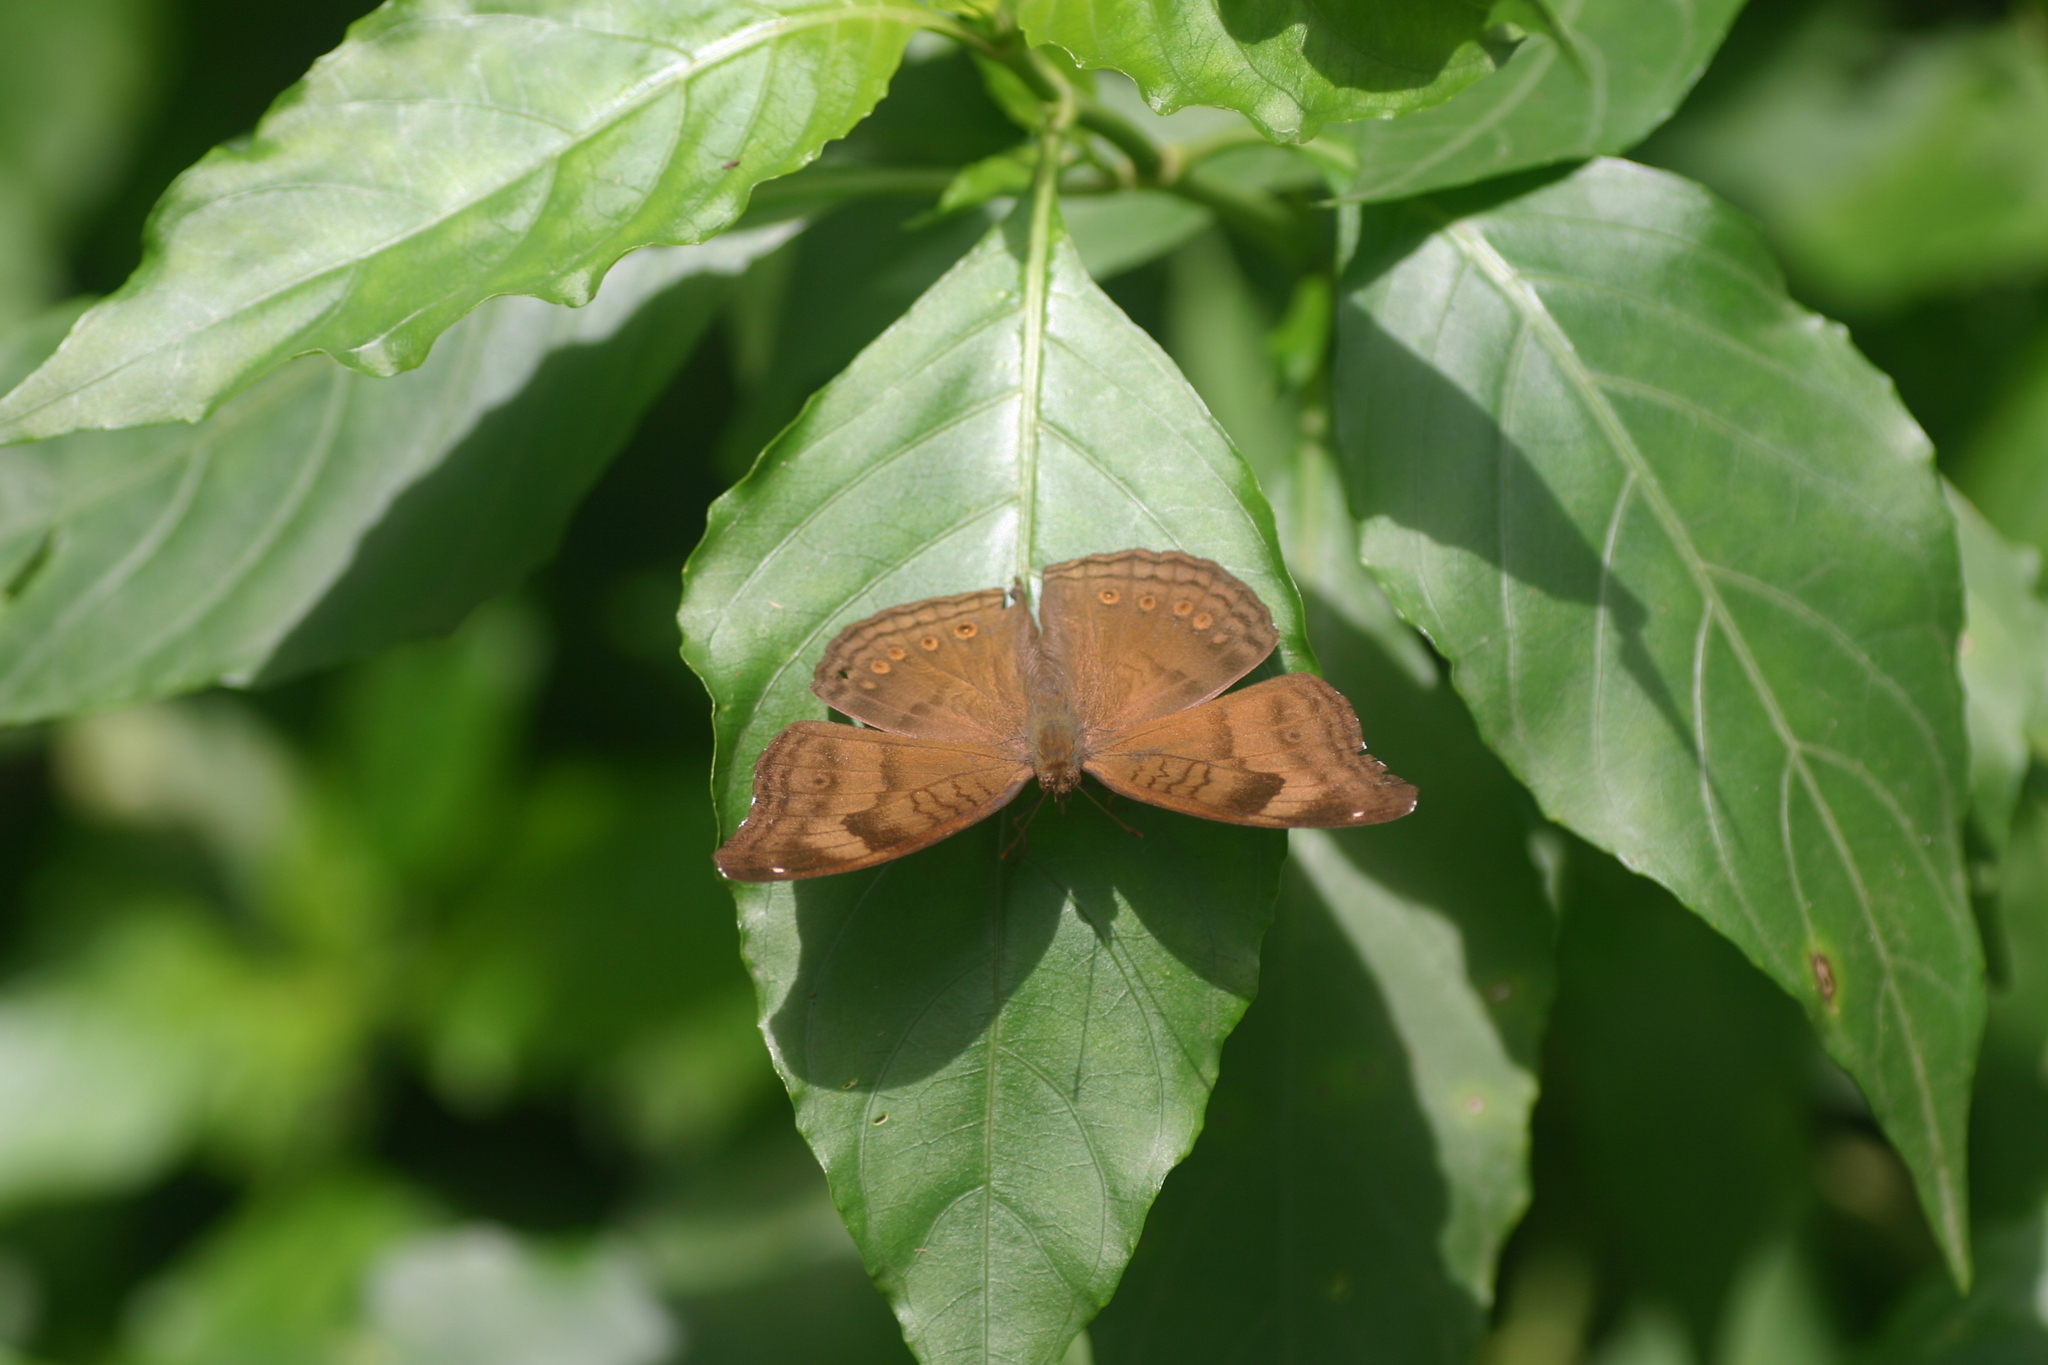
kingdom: Animalia
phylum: Arthropoda
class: Insecta
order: Lepidoptera
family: Nymphalidae
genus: Junonia
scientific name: Junonia iphita
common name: Chocolate pansy
